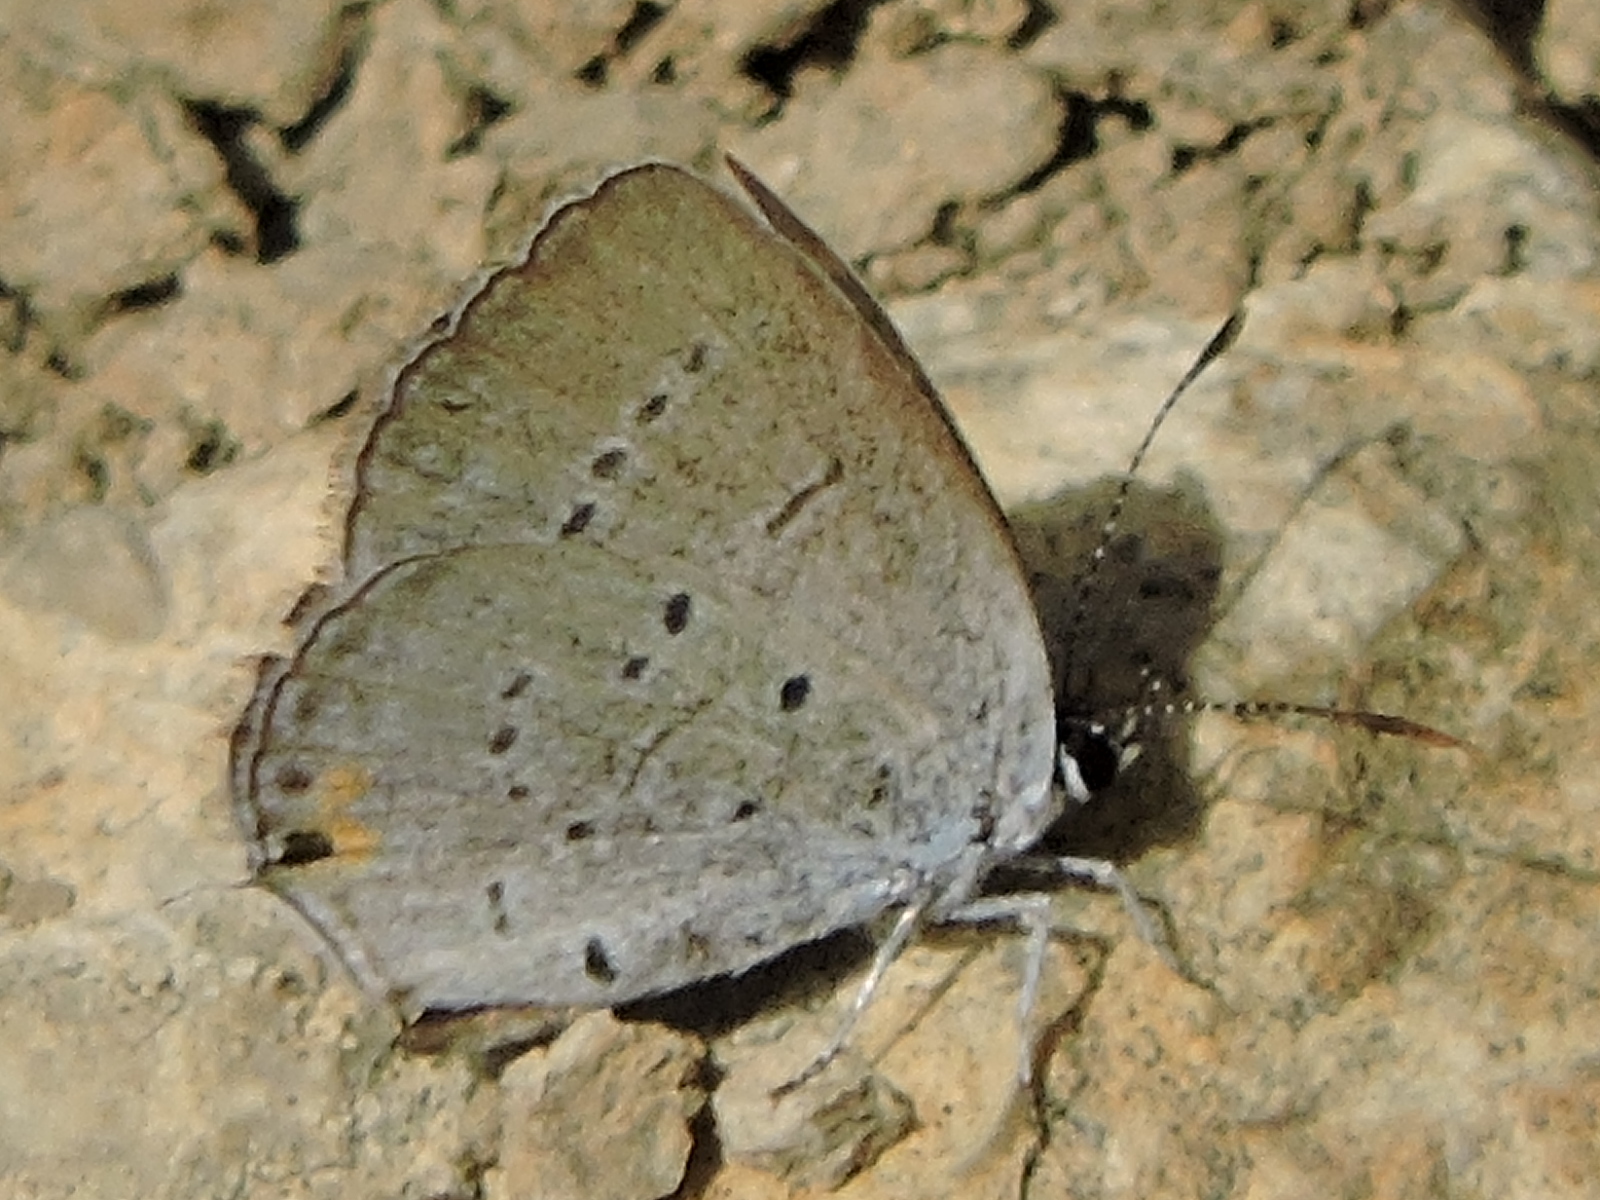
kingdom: Animalia
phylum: Arthropoda
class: Insecta
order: Lepidoptera
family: Lycaenidae
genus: Elkalyce
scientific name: Elkalyce comyntas
